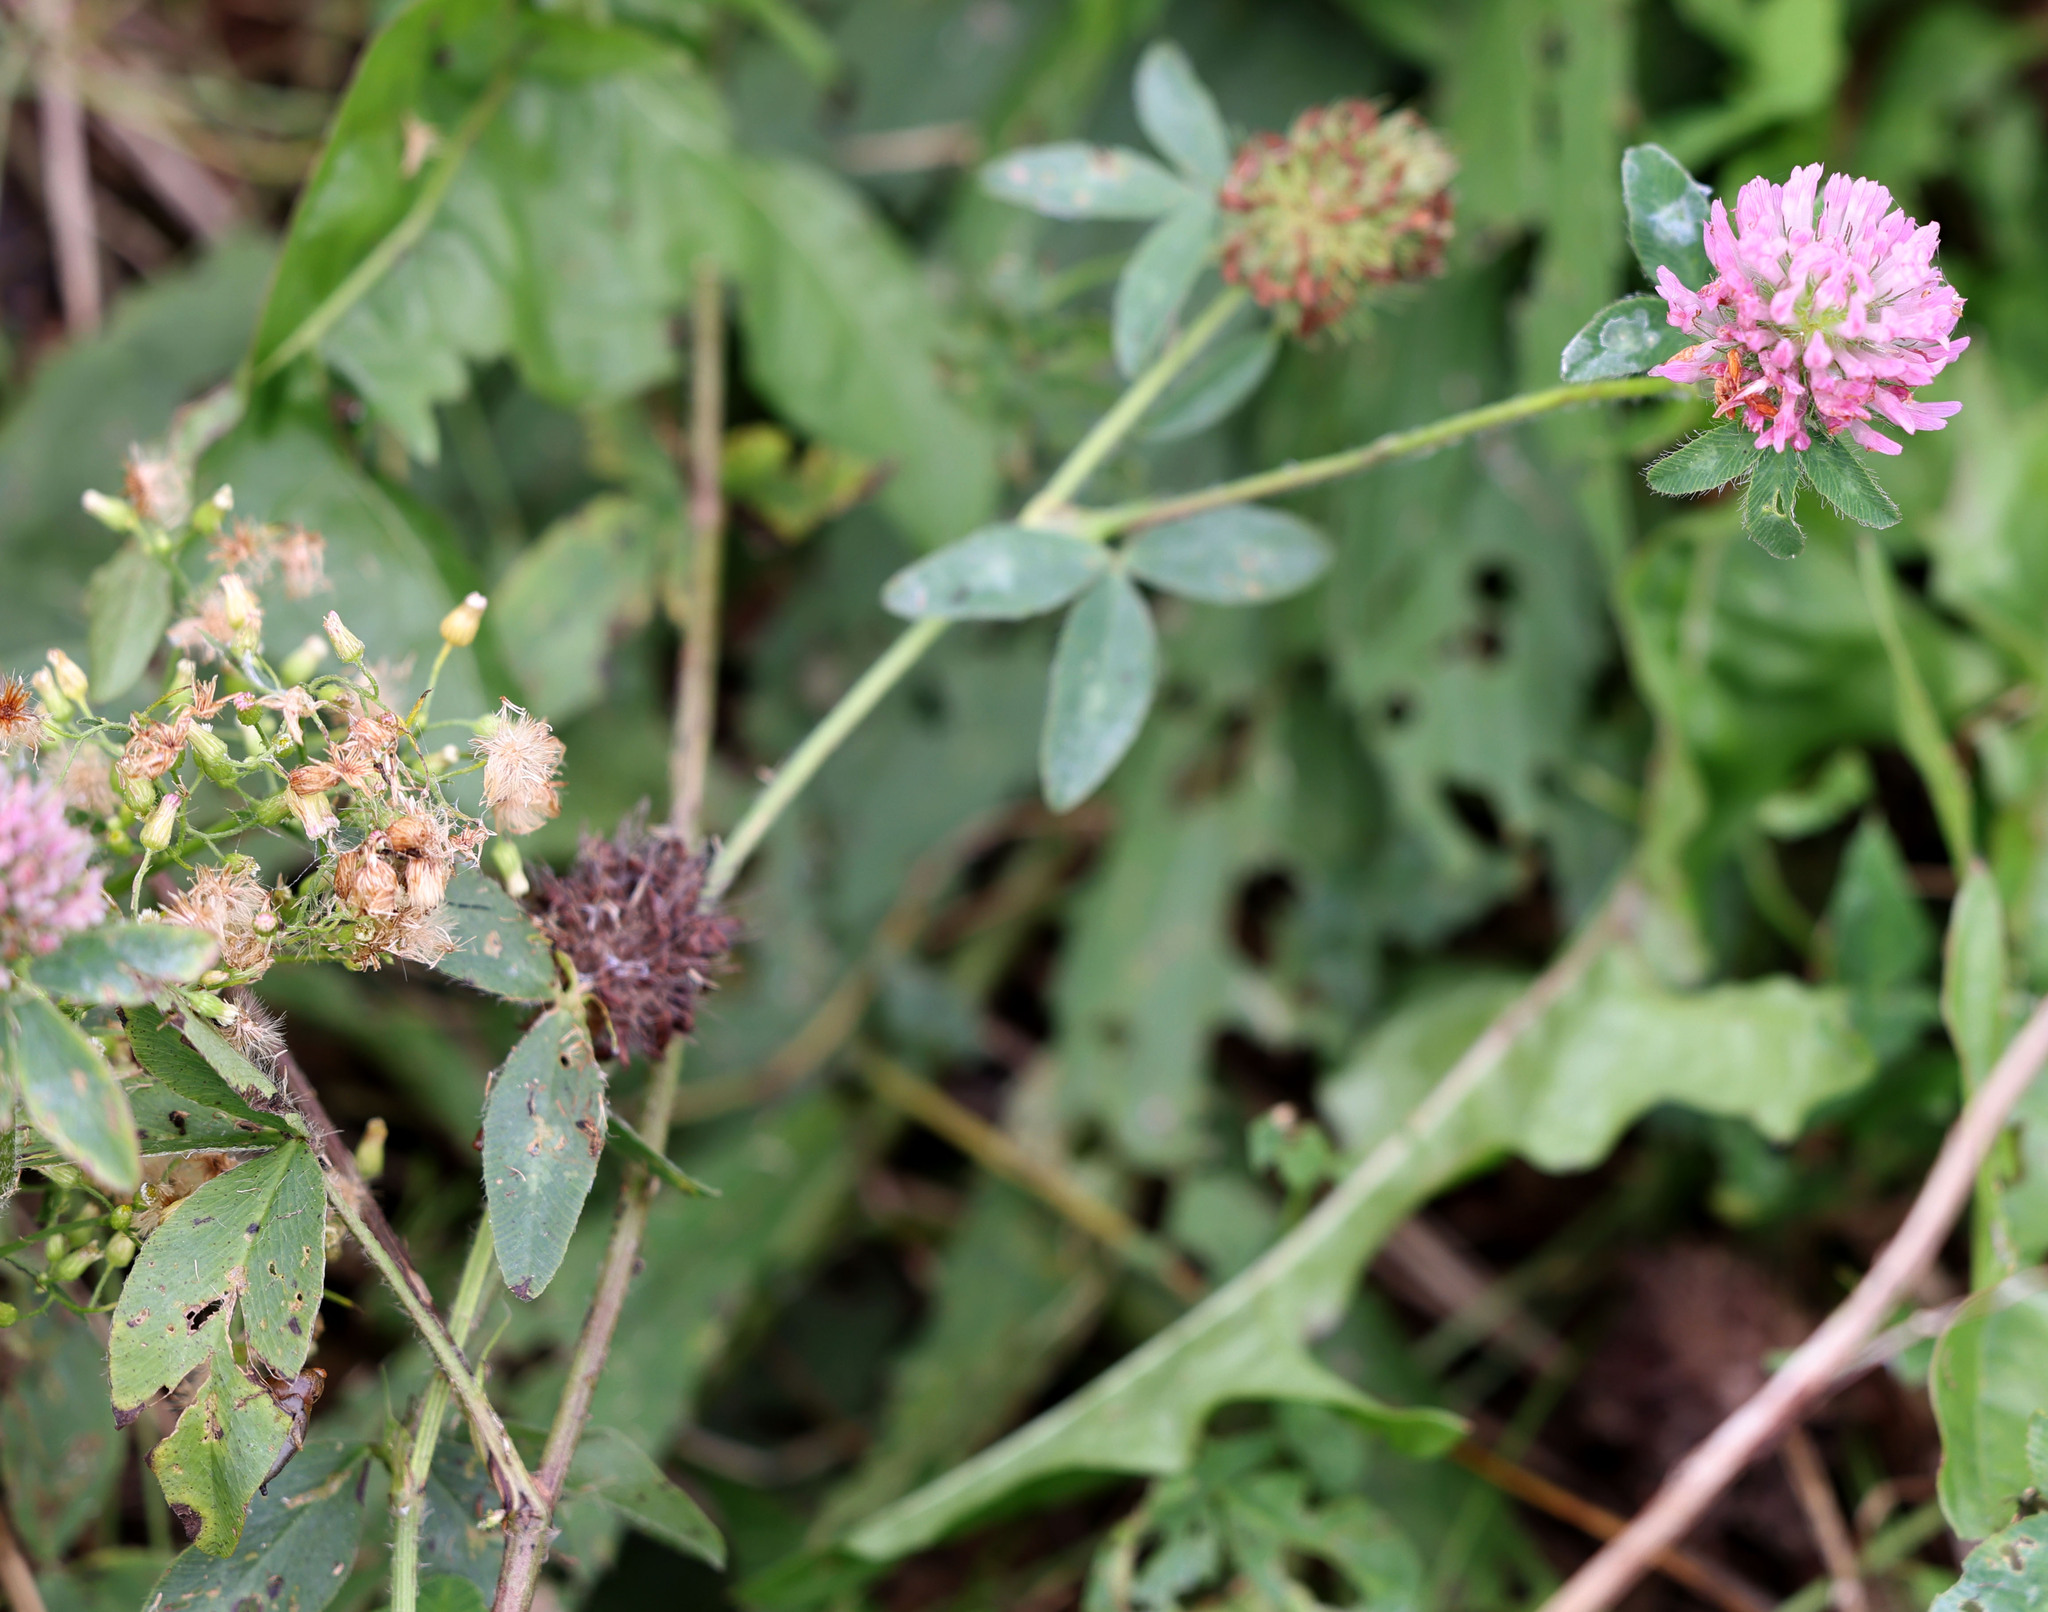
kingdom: Plantae
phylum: Tracheophyta
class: Magnoliopsida
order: Fabales
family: Fabaceae
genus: Trifolium
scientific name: Trifolium pratense
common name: Red clover
